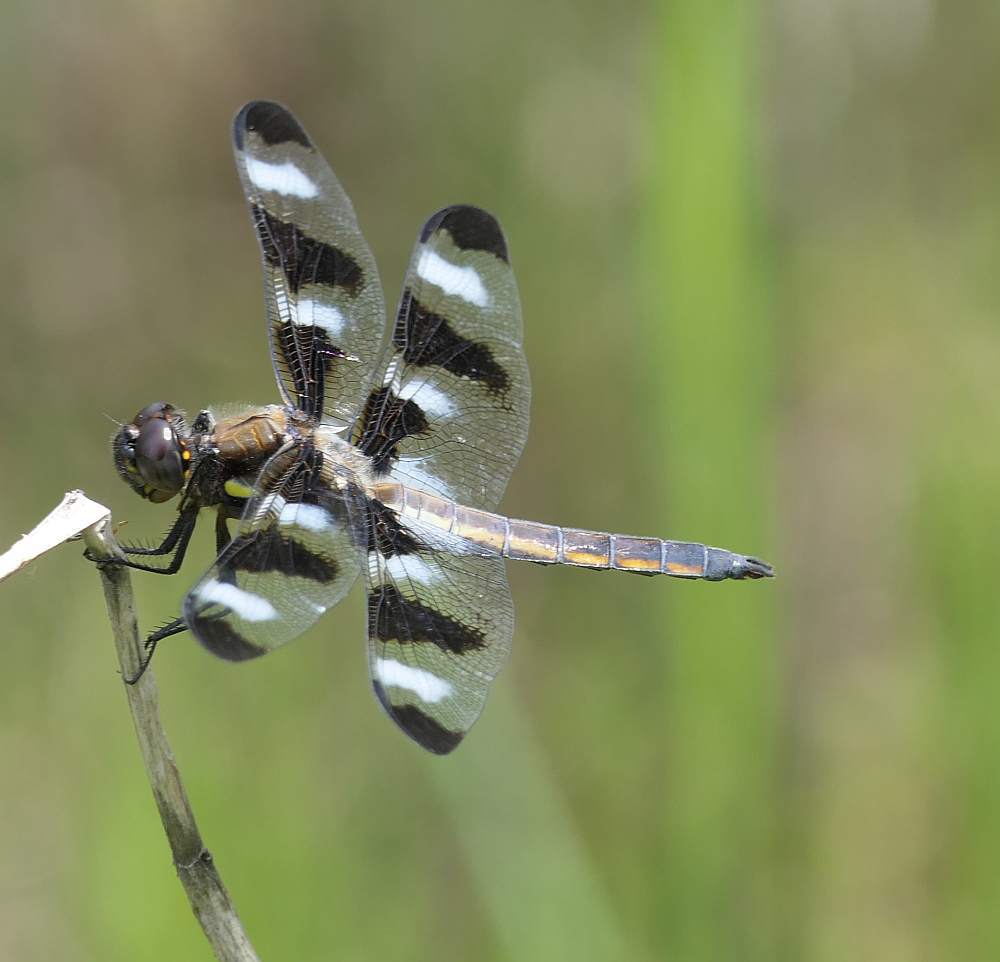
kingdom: Animalia
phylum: Arthropoda
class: Insecta
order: Odonata
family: Libellulidae
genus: Libellula
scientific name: Libellula pulchella
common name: Twelve-spotted skimmer
